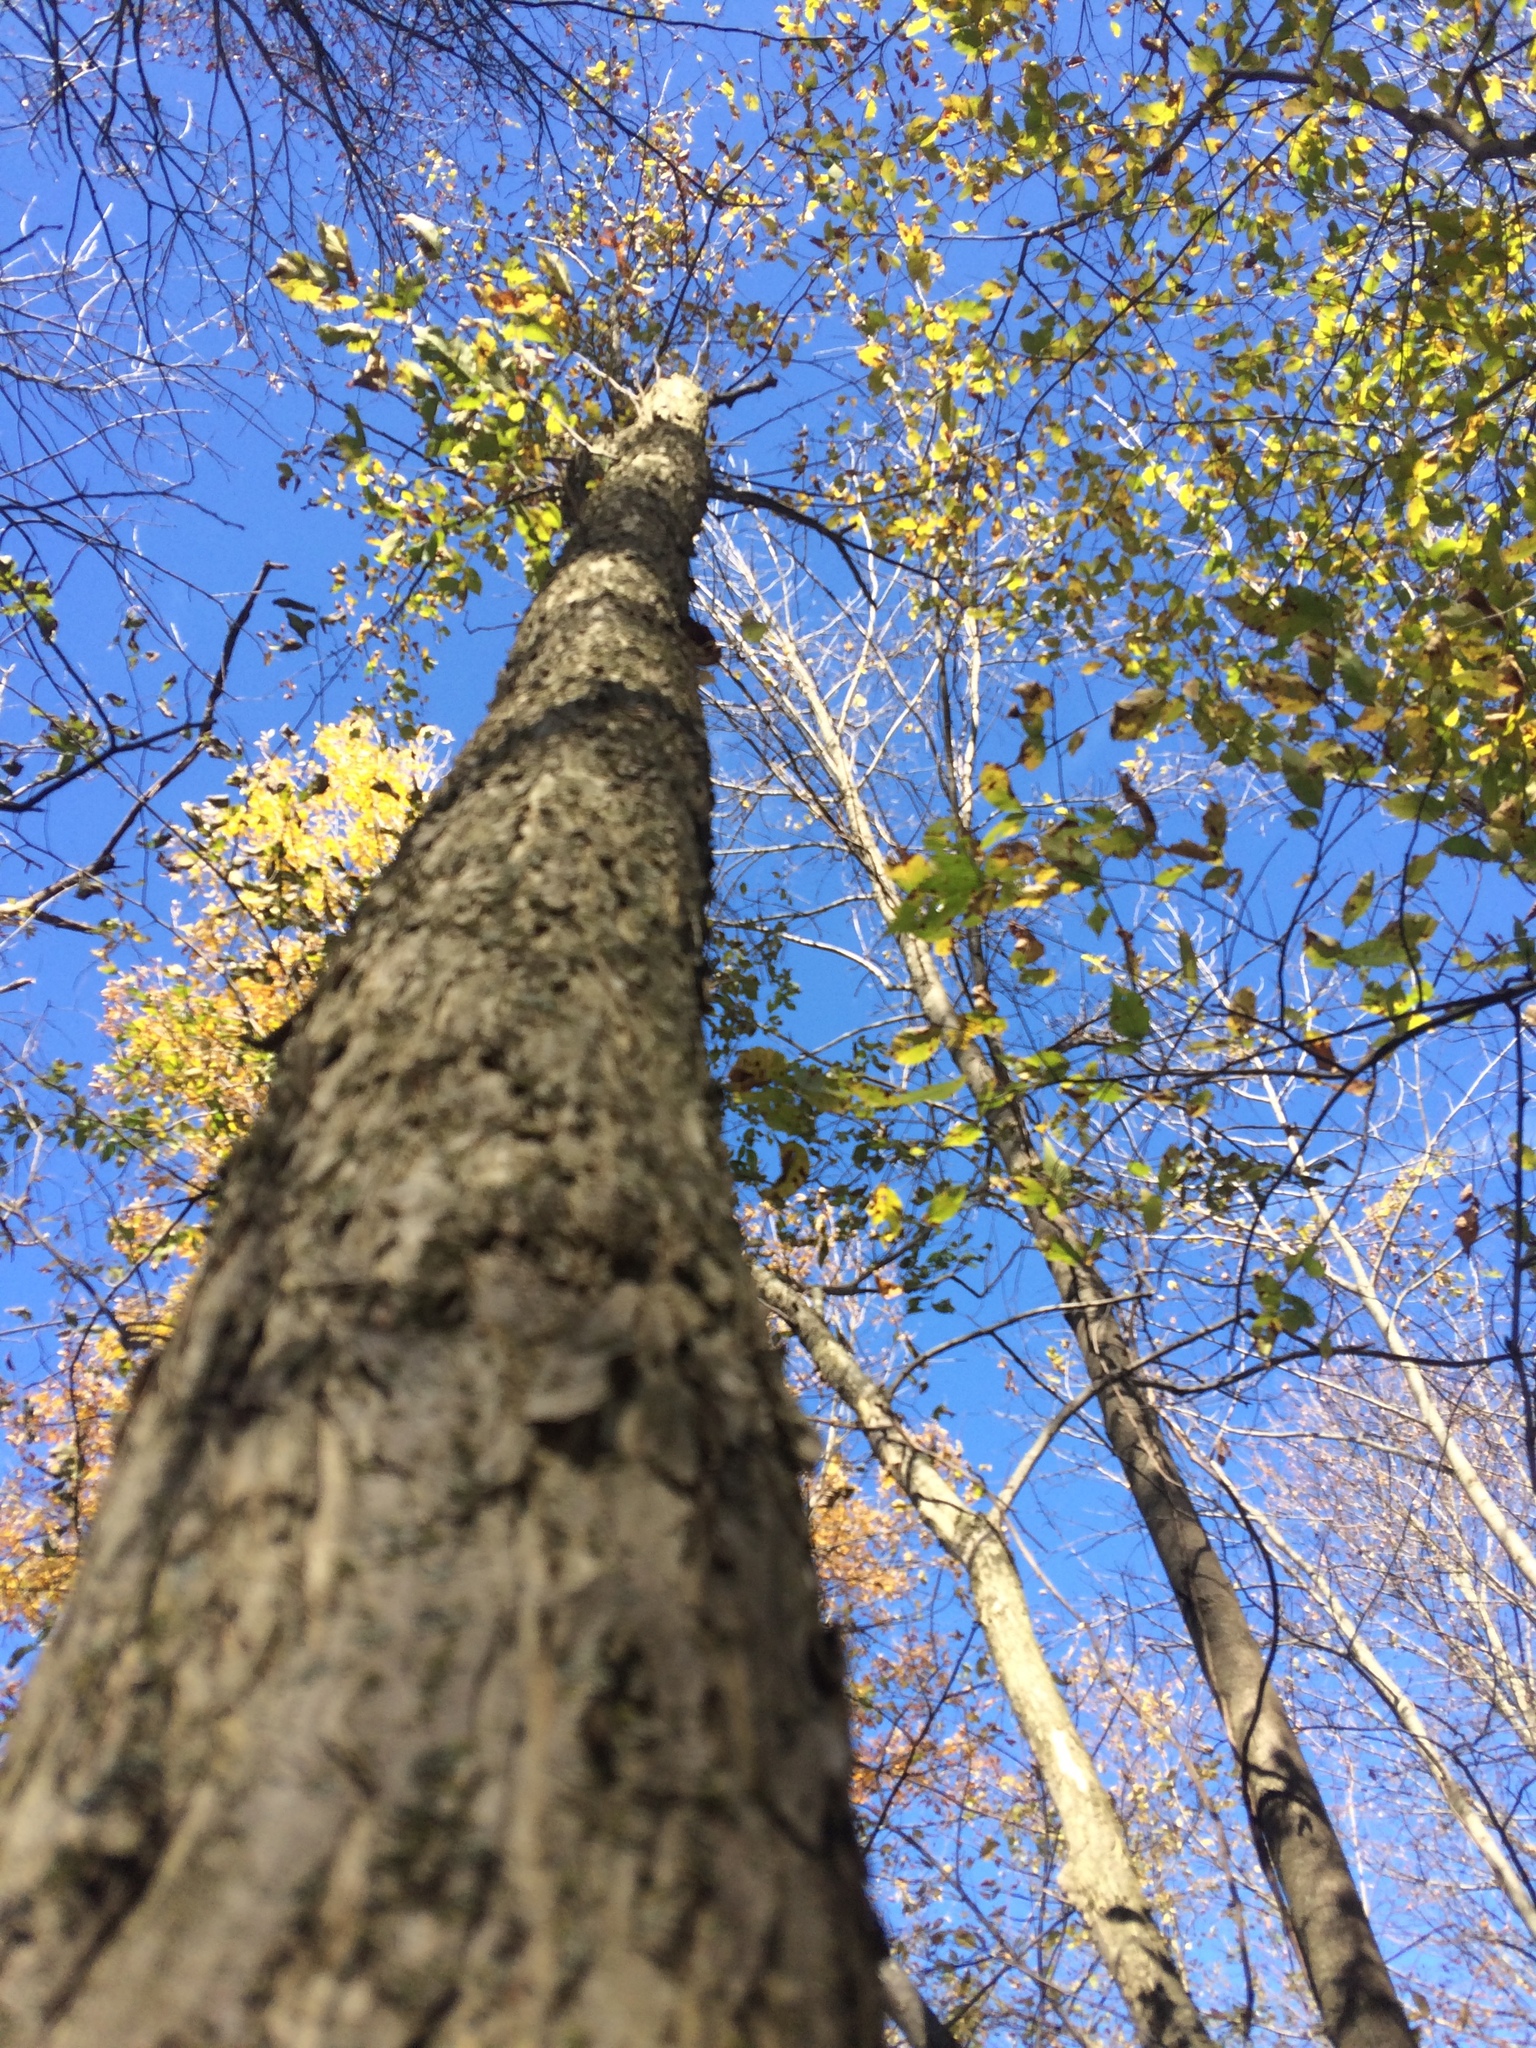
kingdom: Plantae
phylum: Tracheophyta
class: Magnoliopsida
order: Fagales
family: Betulaceae
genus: Ostrya
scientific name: Ostrya virginiana
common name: Ironwood
